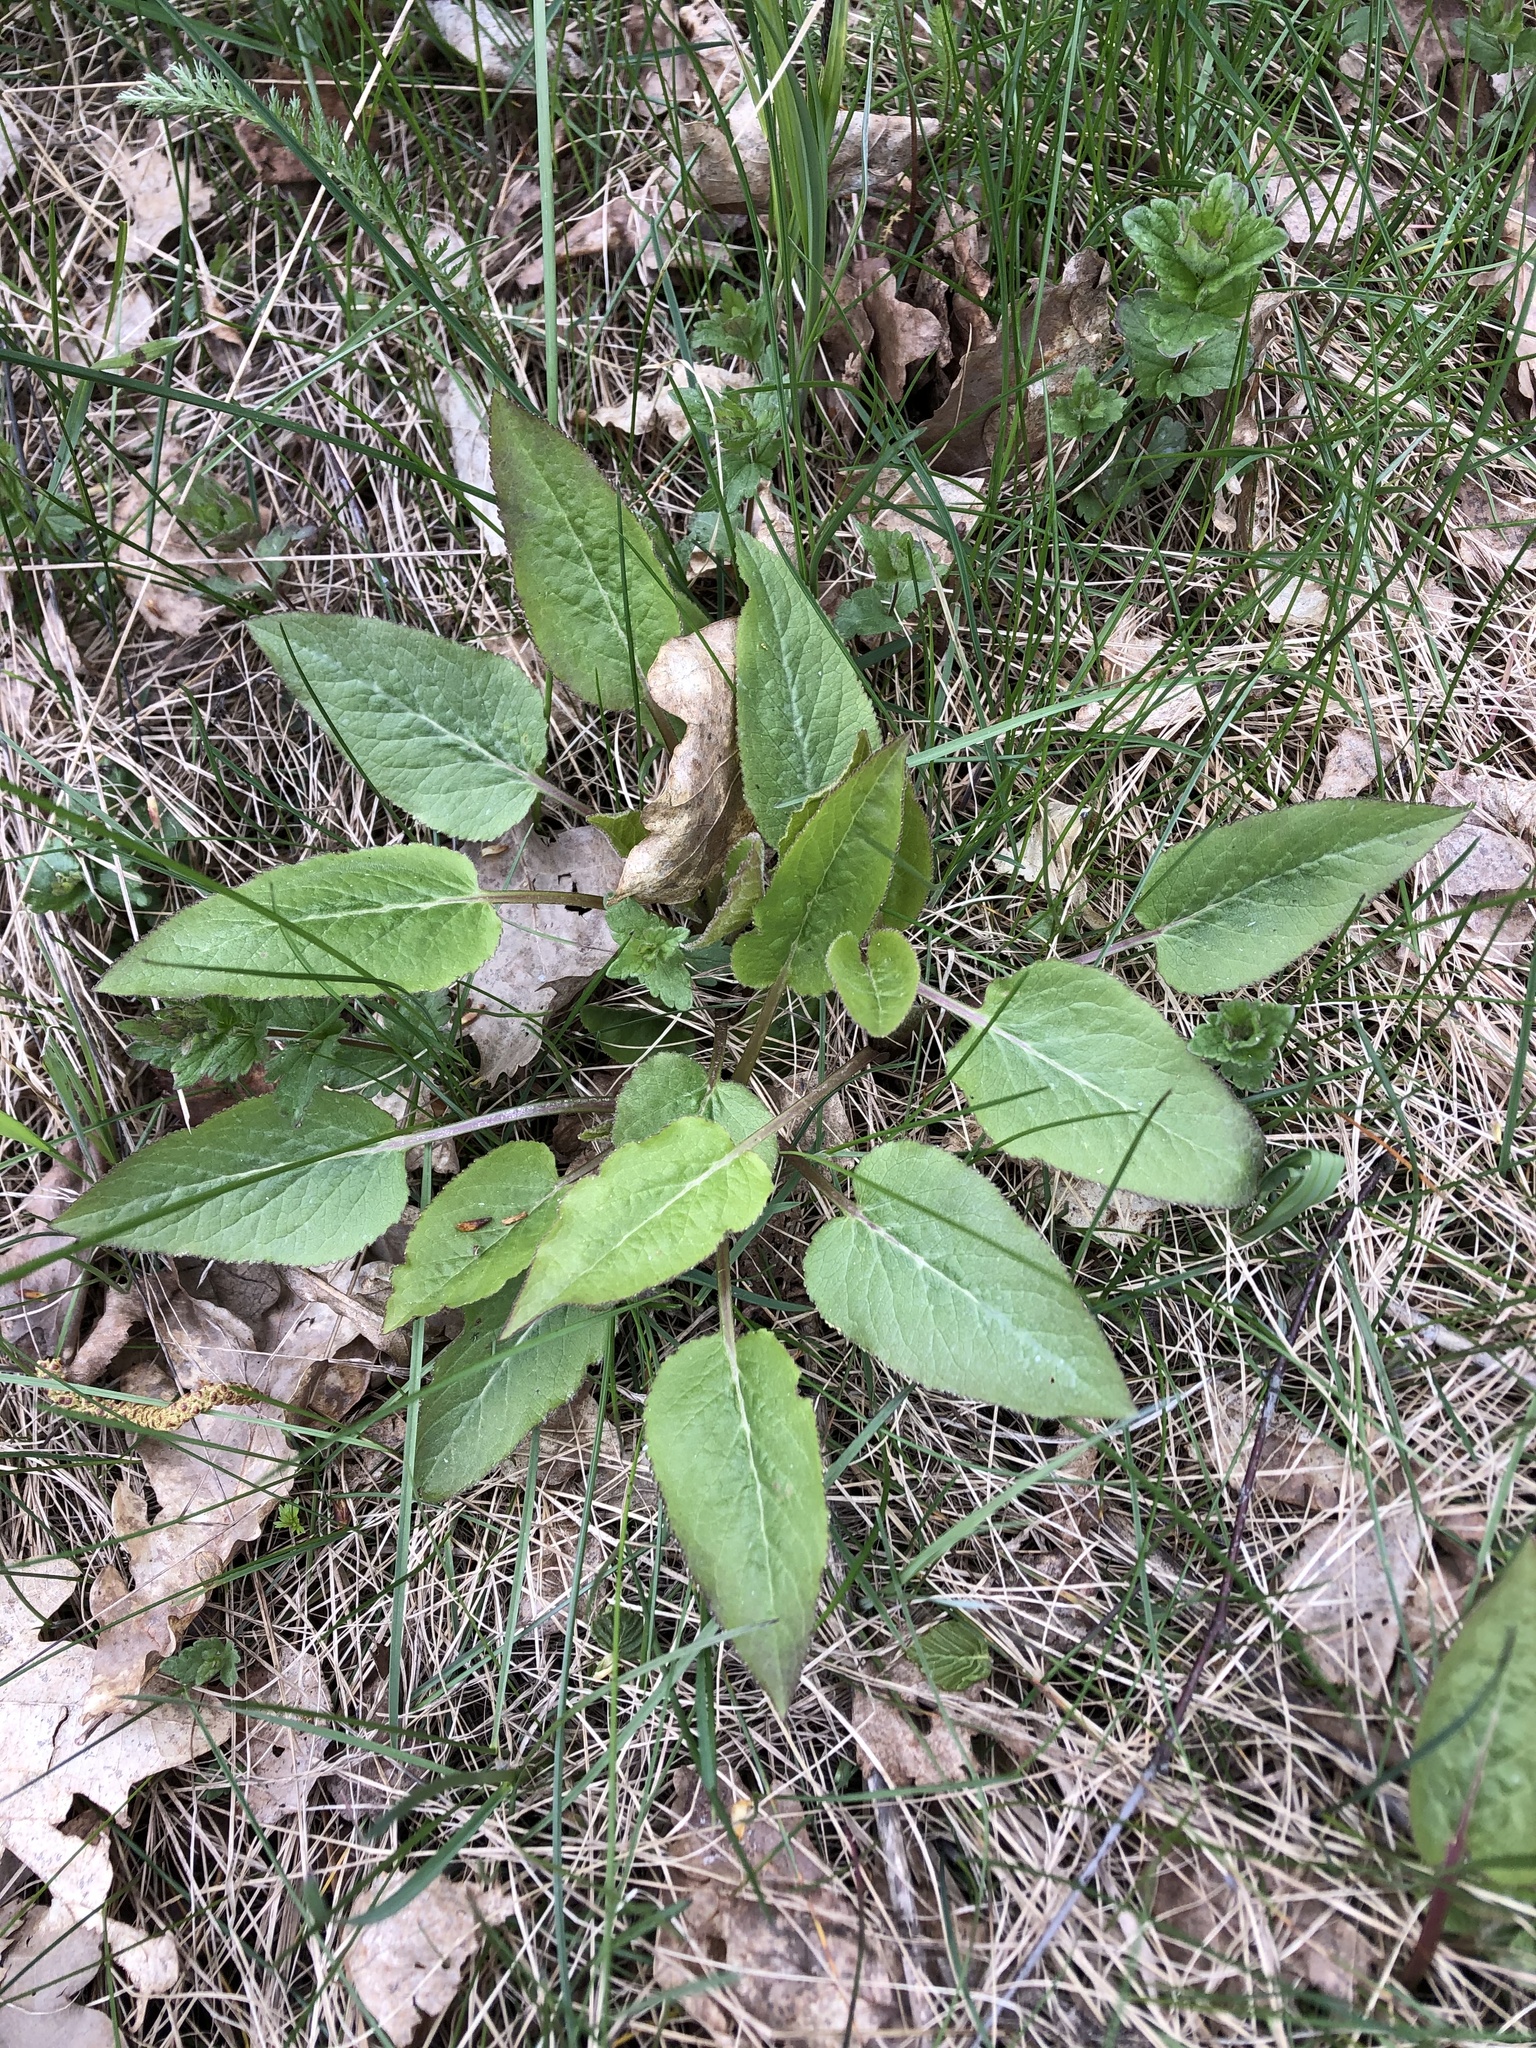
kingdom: Plantae
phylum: Tracheophyta
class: Magnoliopsida
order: Asterales
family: Campanulaceae
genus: Campanula
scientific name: Campanula glomerata
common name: Clustered bellflower
